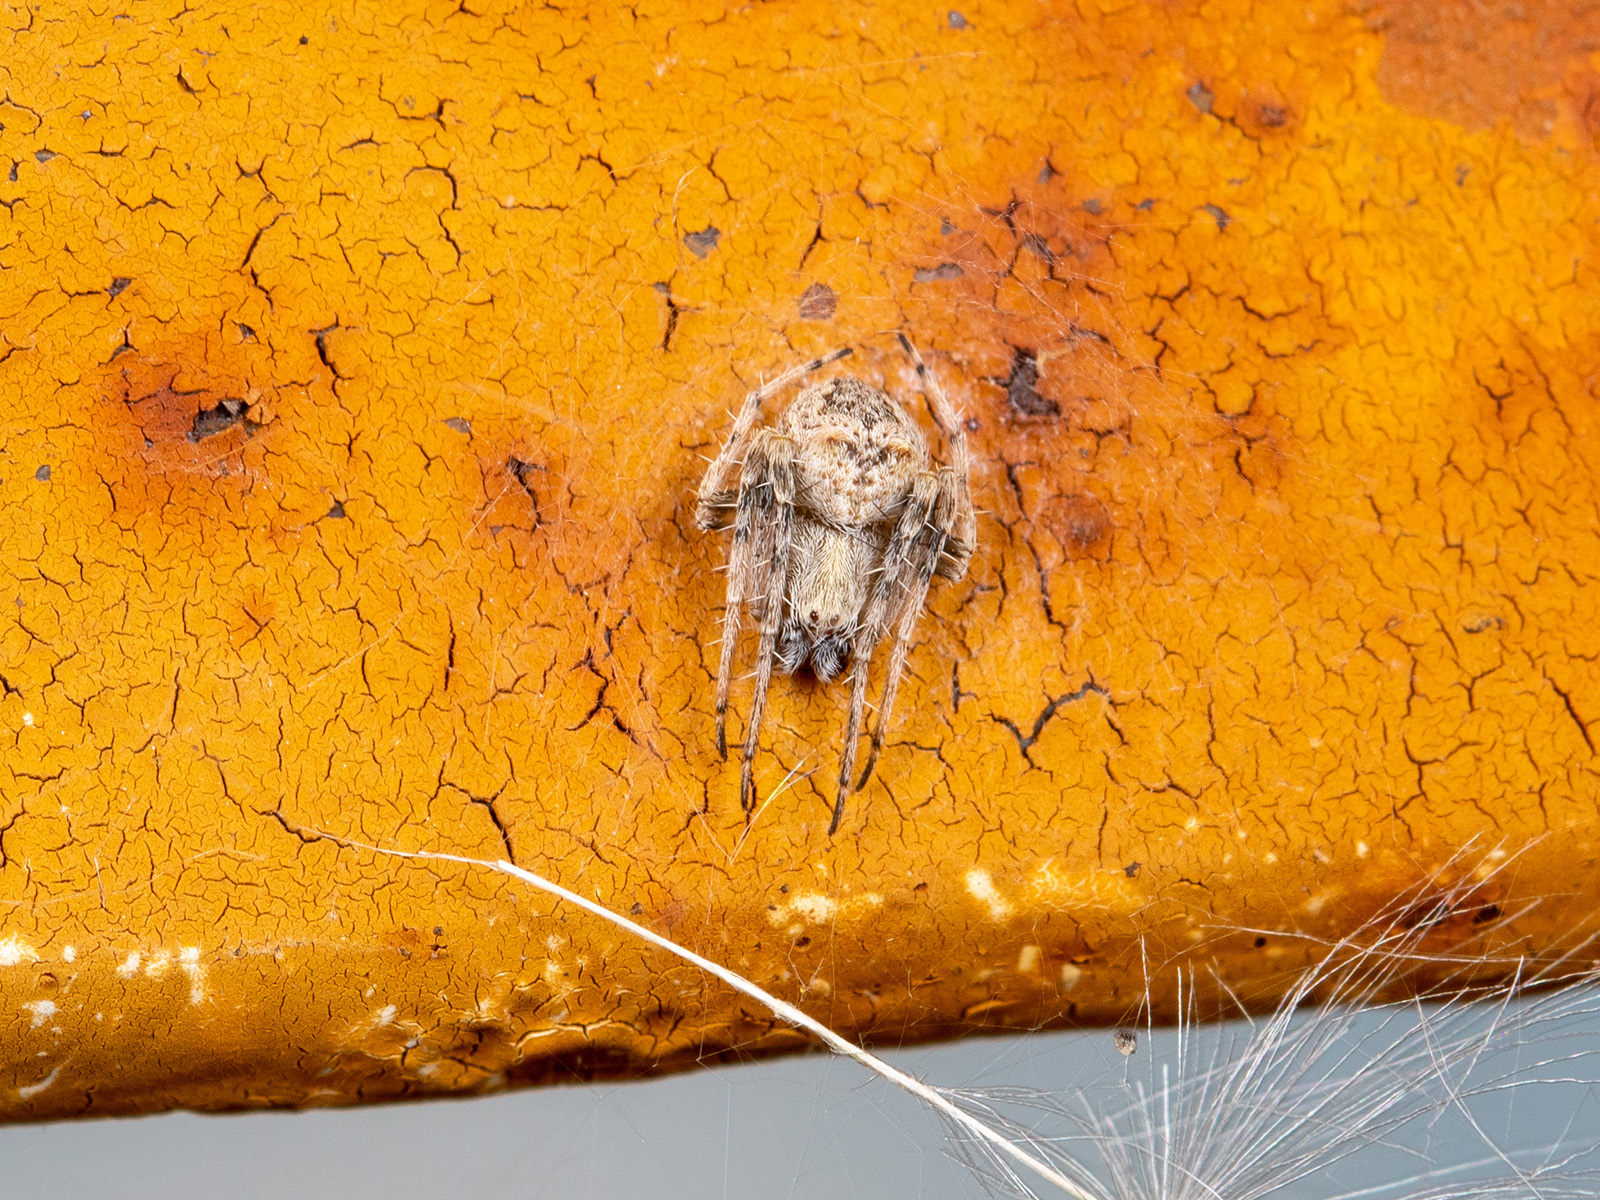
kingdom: Animalia
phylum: Arthropoda
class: Arachnida
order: Araneae
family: Araneidae
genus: Araneus
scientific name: Araneus strandiellus
